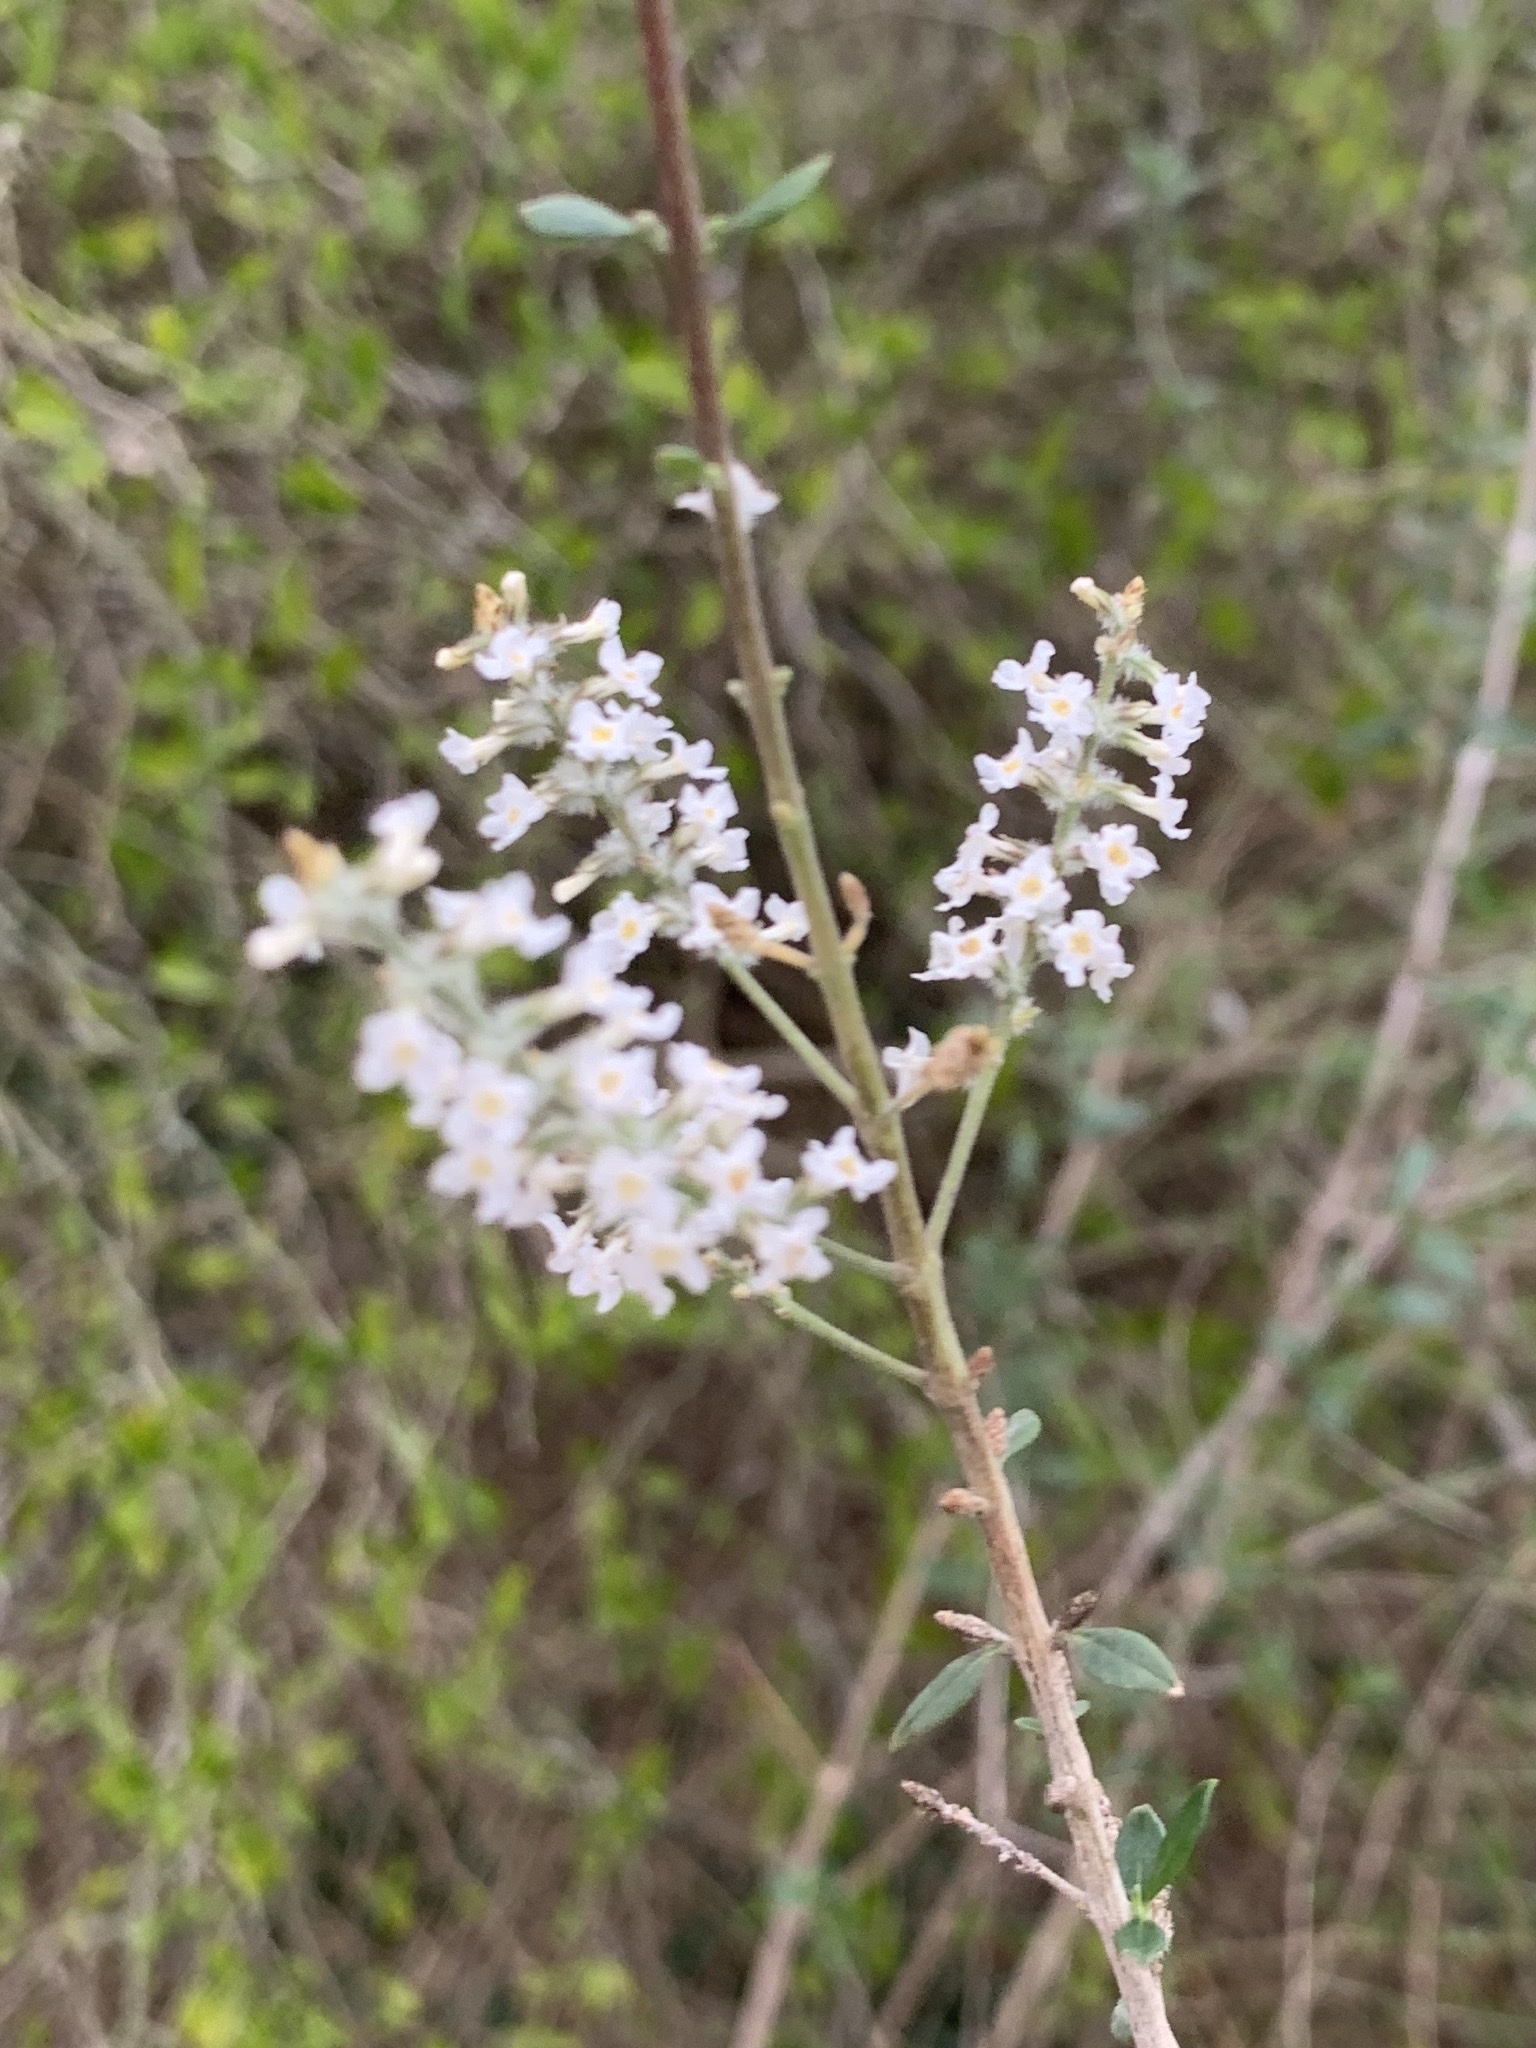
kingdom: Plantae
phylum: Tracheophyta
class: Magnoliopsida
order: Lamiales
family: Verbenaceae
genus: Aloysia
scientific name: Aloysia gratissima
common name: Common bee-brush
